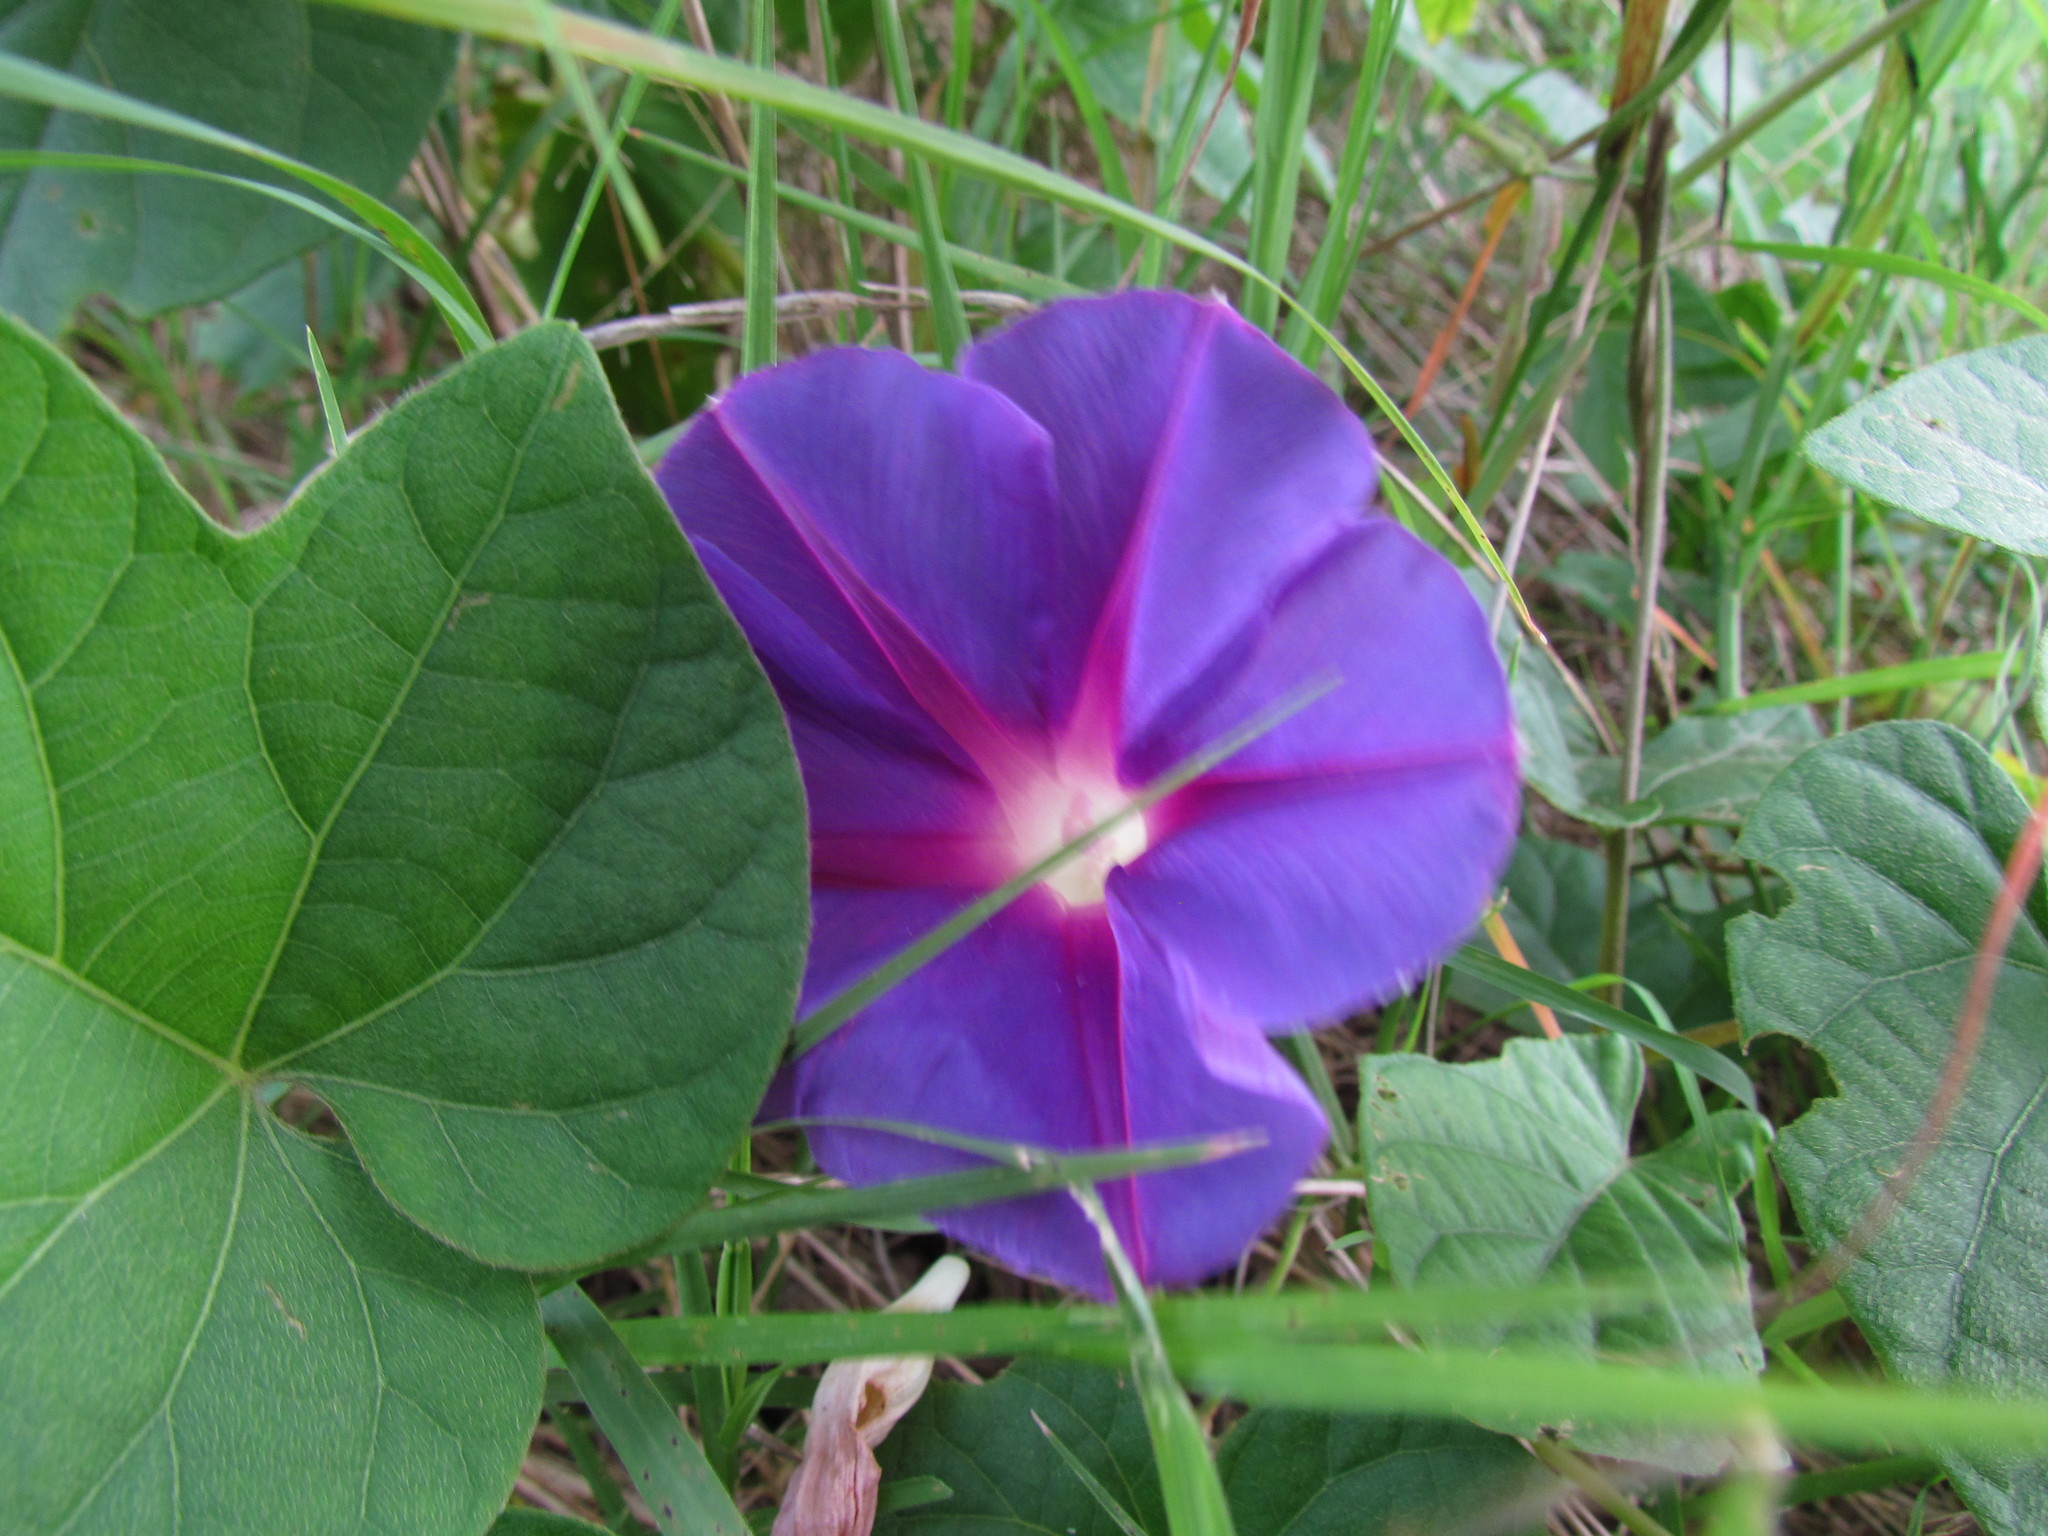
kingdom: Plantae
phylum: Tracheophyta
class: Magnoliopsida
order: Solanales
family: Convolvulaceae
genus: Ipomoea
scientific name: Ipomoea purpurea
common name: Common morning-glory
